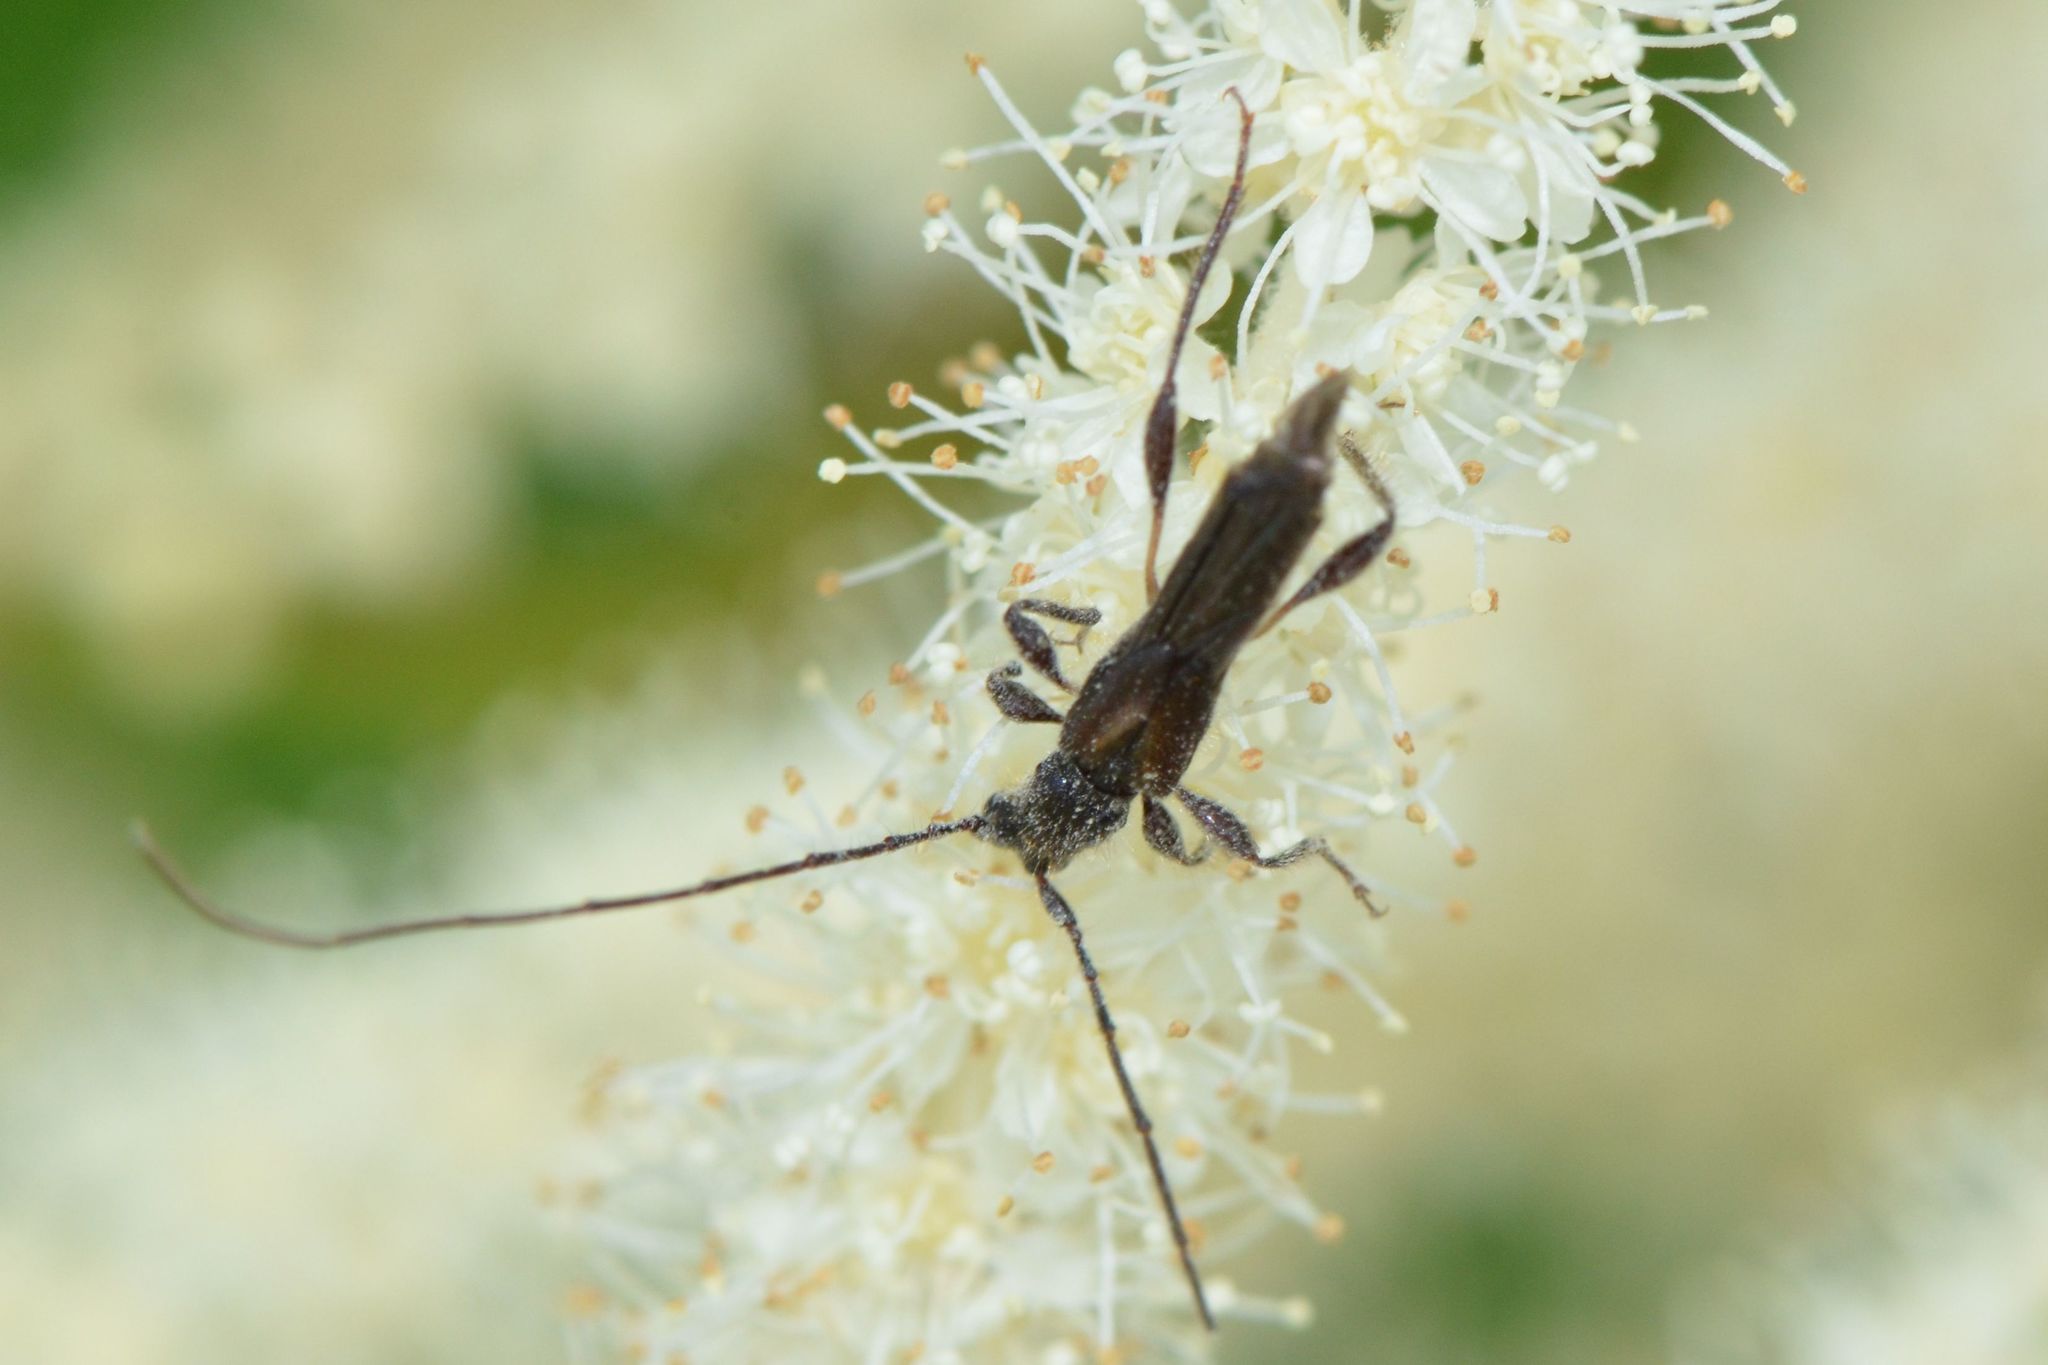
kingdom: Animalia
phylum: Arthropoda
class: Insecta
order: Coleoptera
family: Cerambycidae
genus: Molorchus
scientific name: Molorchus umbellatarum
